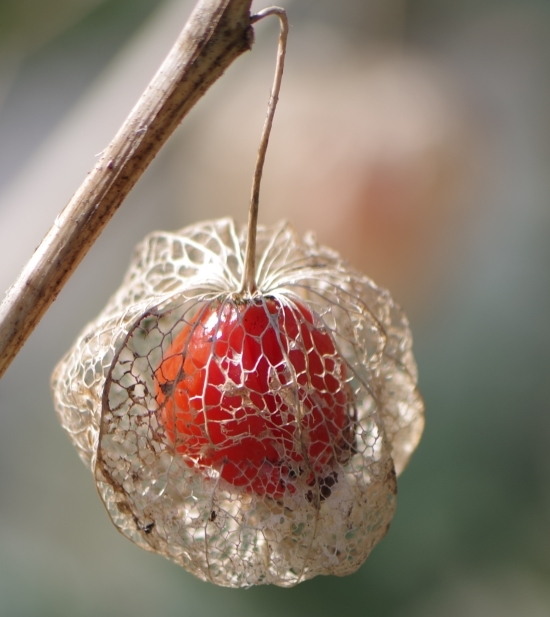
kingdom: Plantae
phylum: Tracheophyta
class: Magnoliopsida
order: Solanales
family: Solanaceae
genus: Alkekengi
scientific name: Alkekengi officinarum
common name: Japanese-lantern
